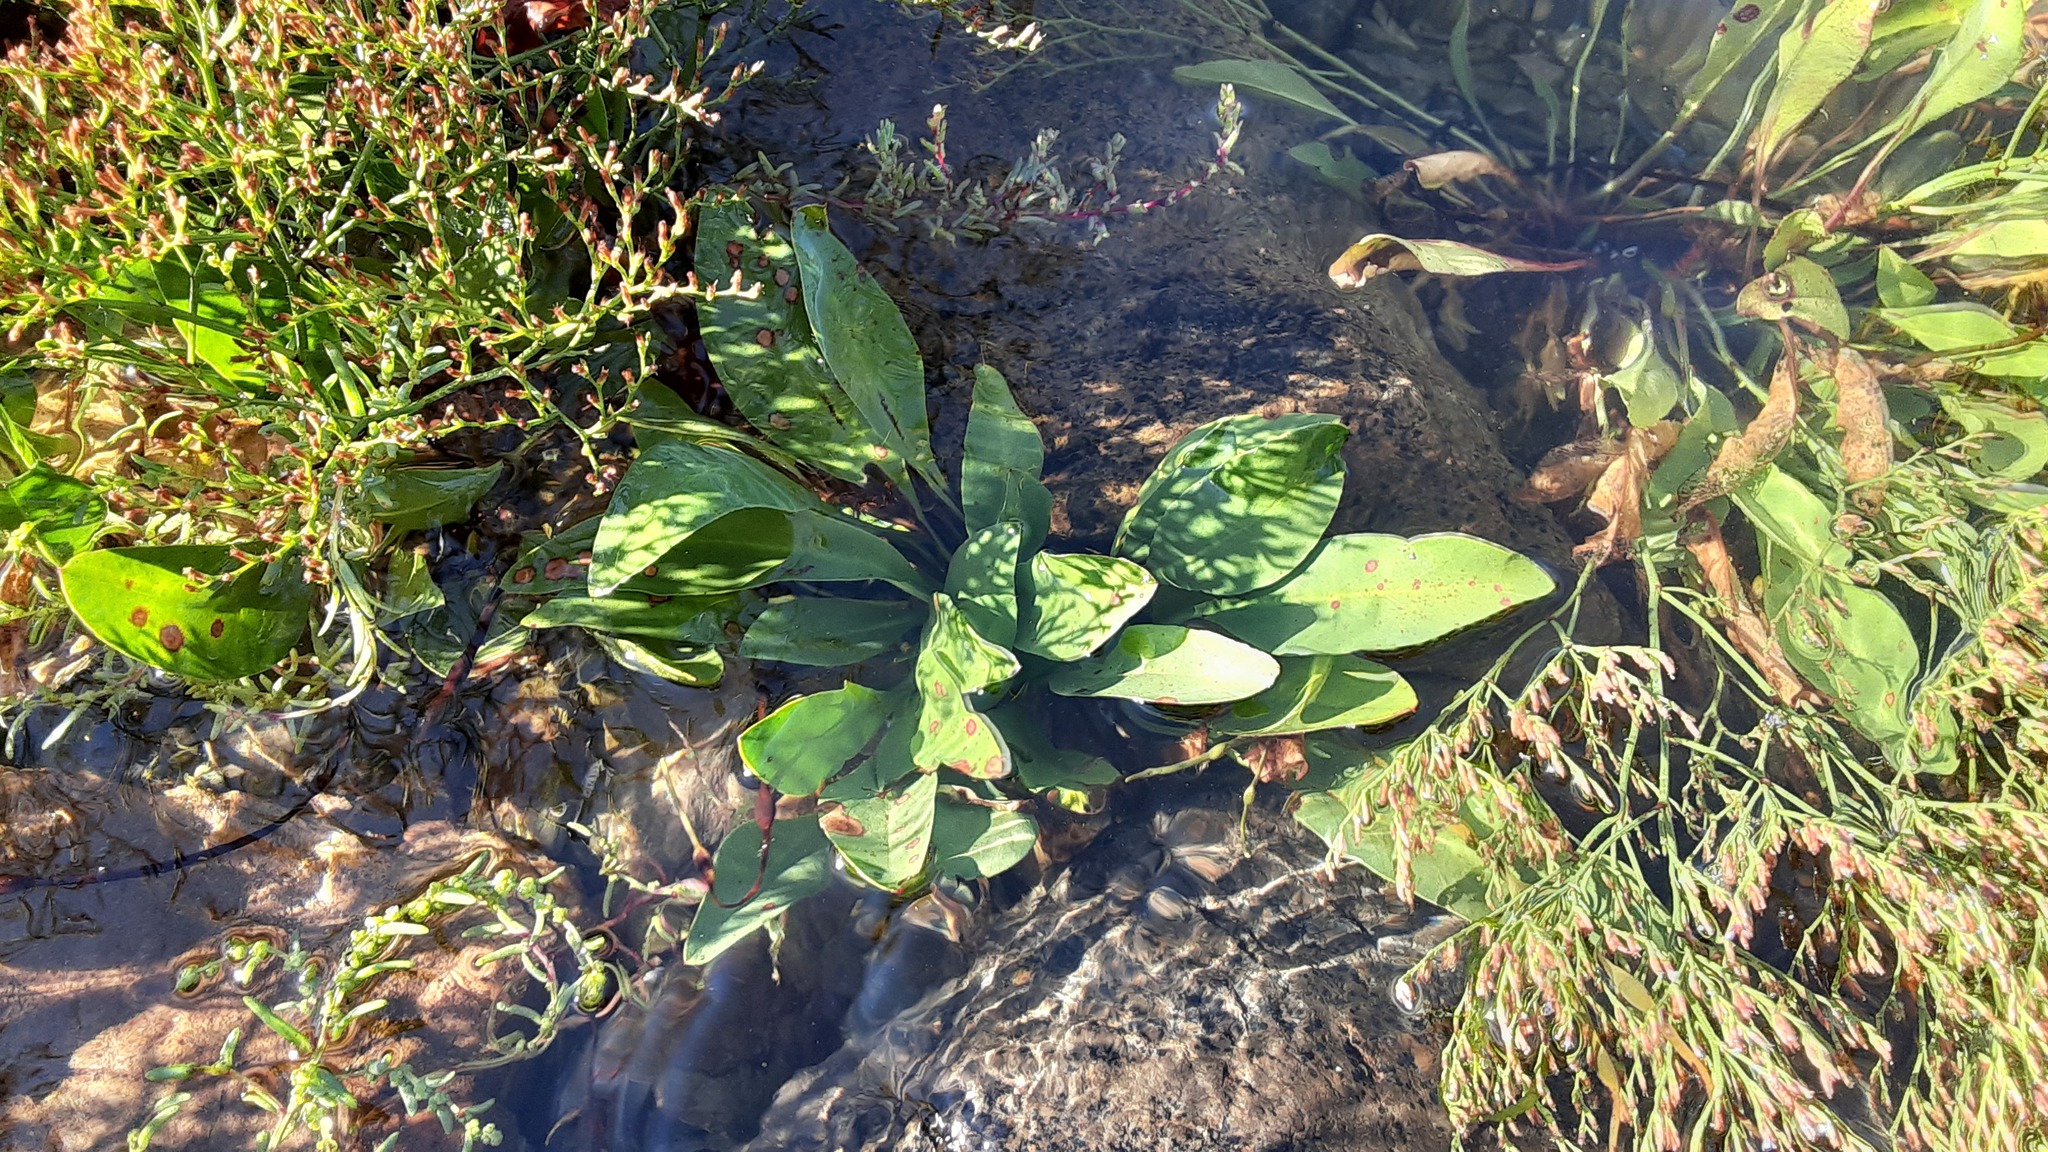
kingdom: Plantae
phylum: Tracheophyta
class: Magnoliopsida
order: Caryophyllales
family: Plumbaginaceae
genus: Limonium
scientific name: Limonium carolinianum
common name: Carolina sea lavender
